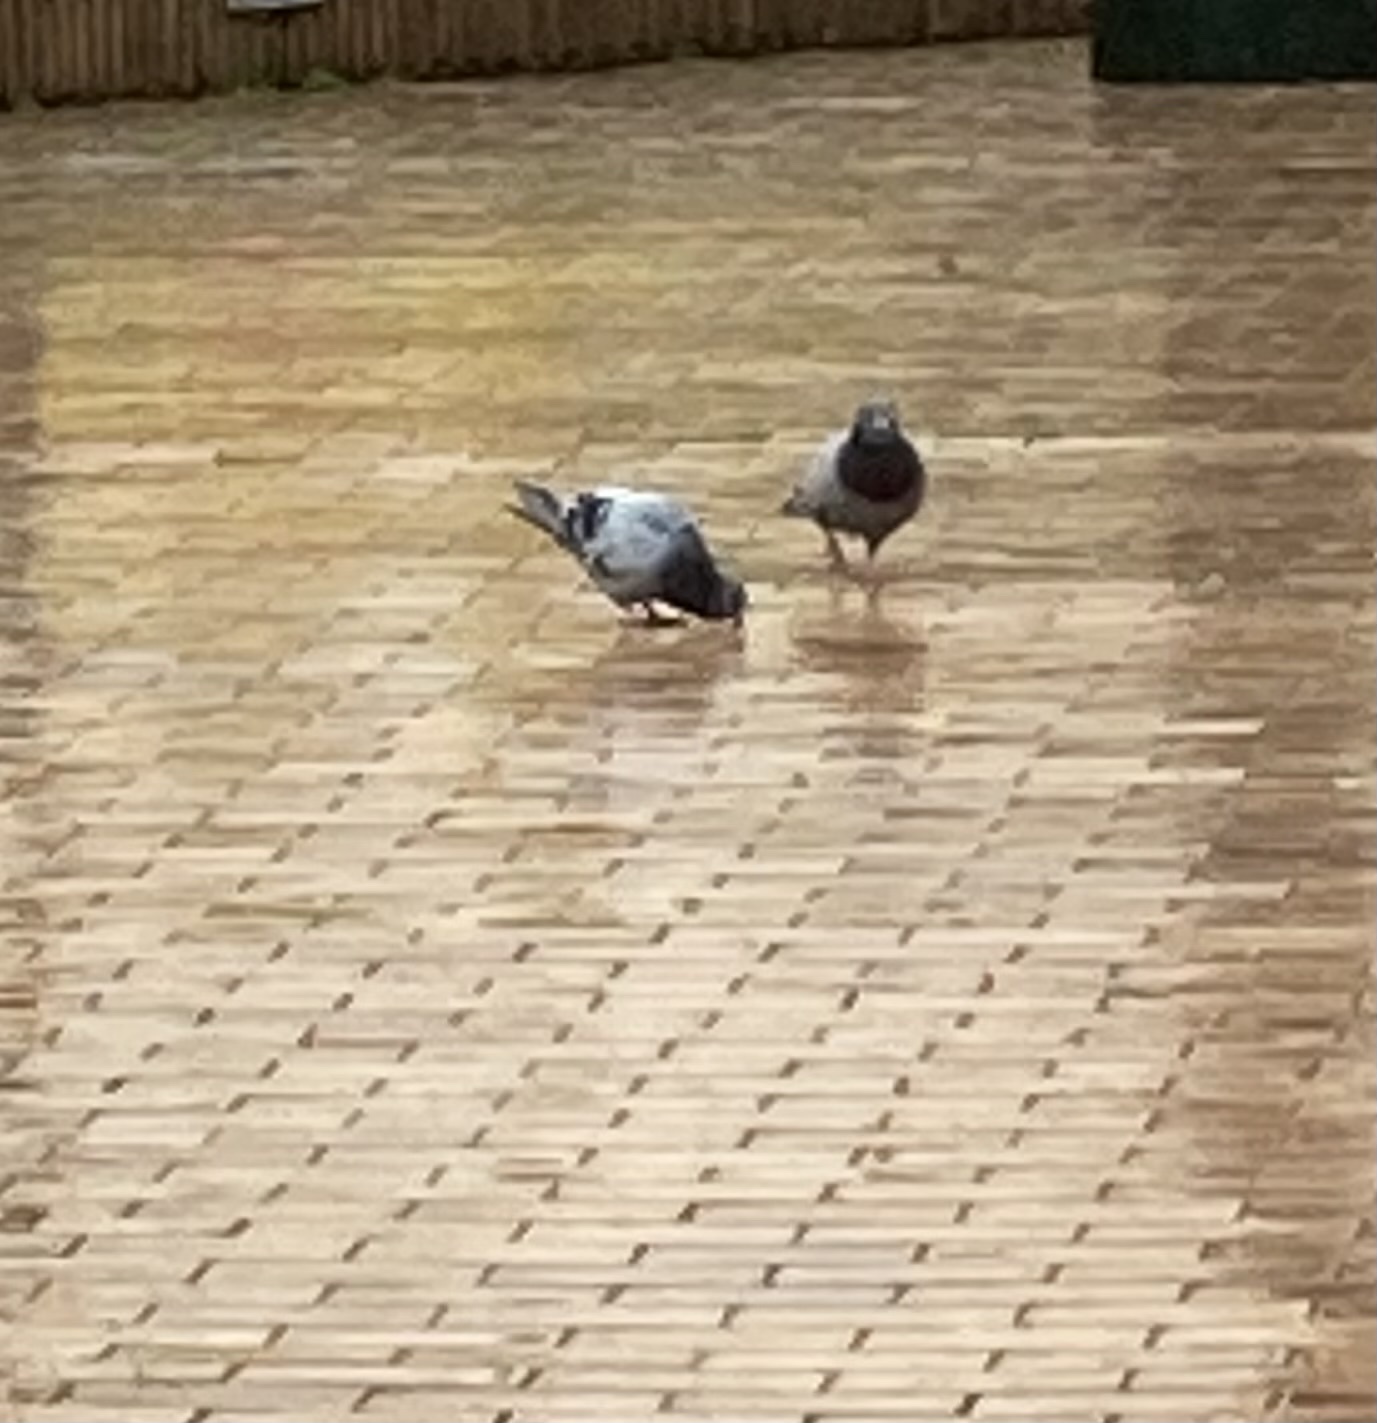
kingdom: Animalia
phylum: Chordata
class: Aves
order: Columbiformes
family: Columbidae
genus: Columba
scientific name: Columba livia
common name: Rock pigeon
